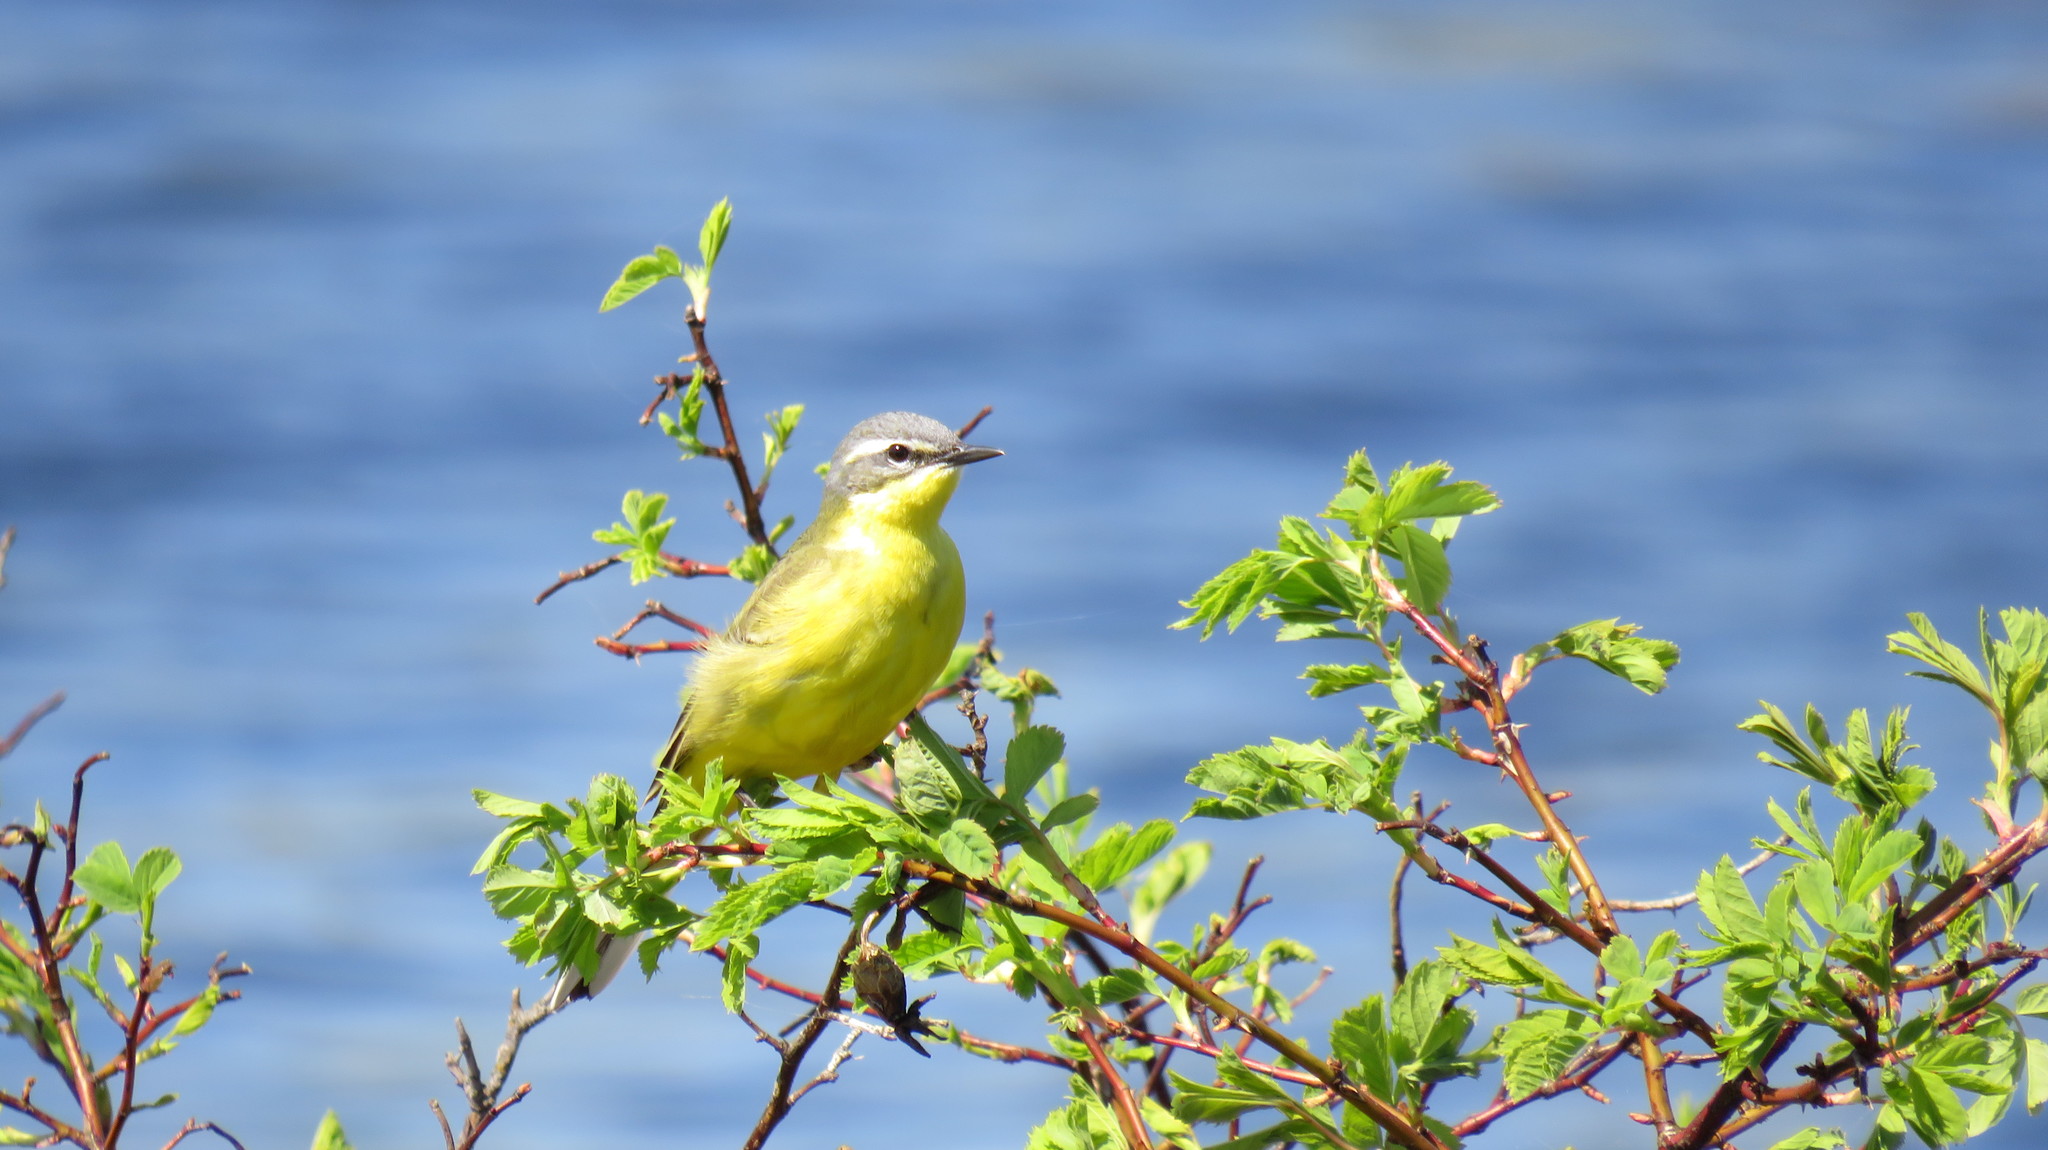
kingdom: Animalia
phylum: Chordata
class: Aves
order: Passeriformes
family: Motacillidae
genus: Motacilla
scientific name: Motacilla flava
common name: Western yellow wagtail
